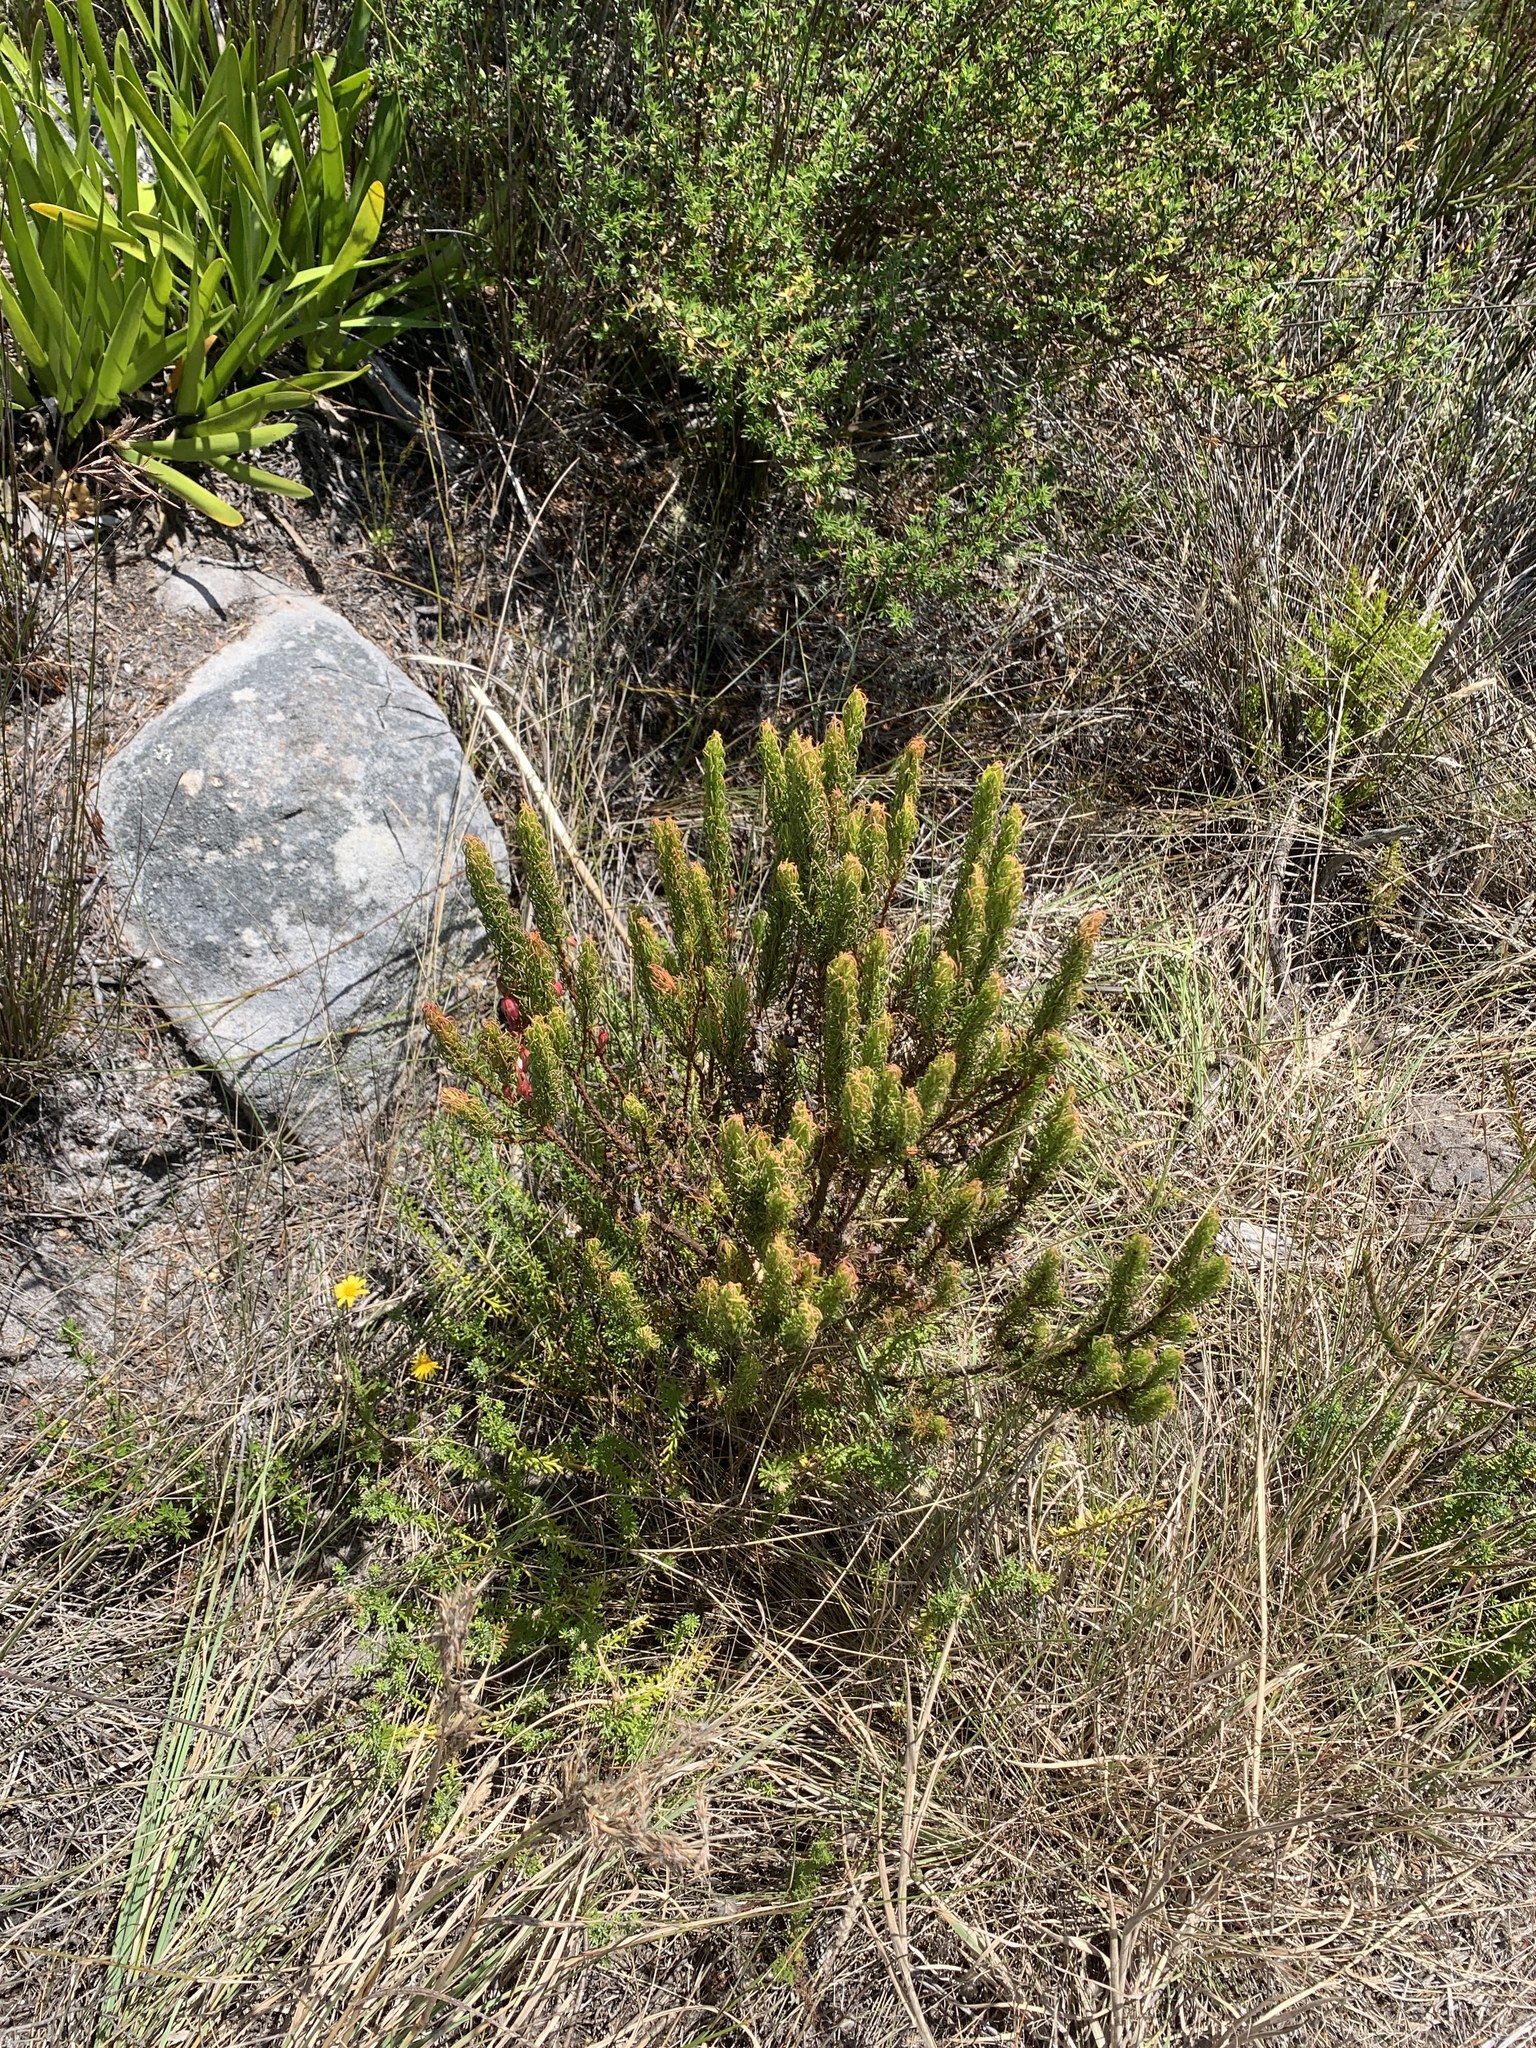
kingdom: Plantae
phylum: Tracheophyta
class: Magnoliopsida
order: Ericales
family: Ericaceae
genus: Erica
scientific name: Erica plukenetii
